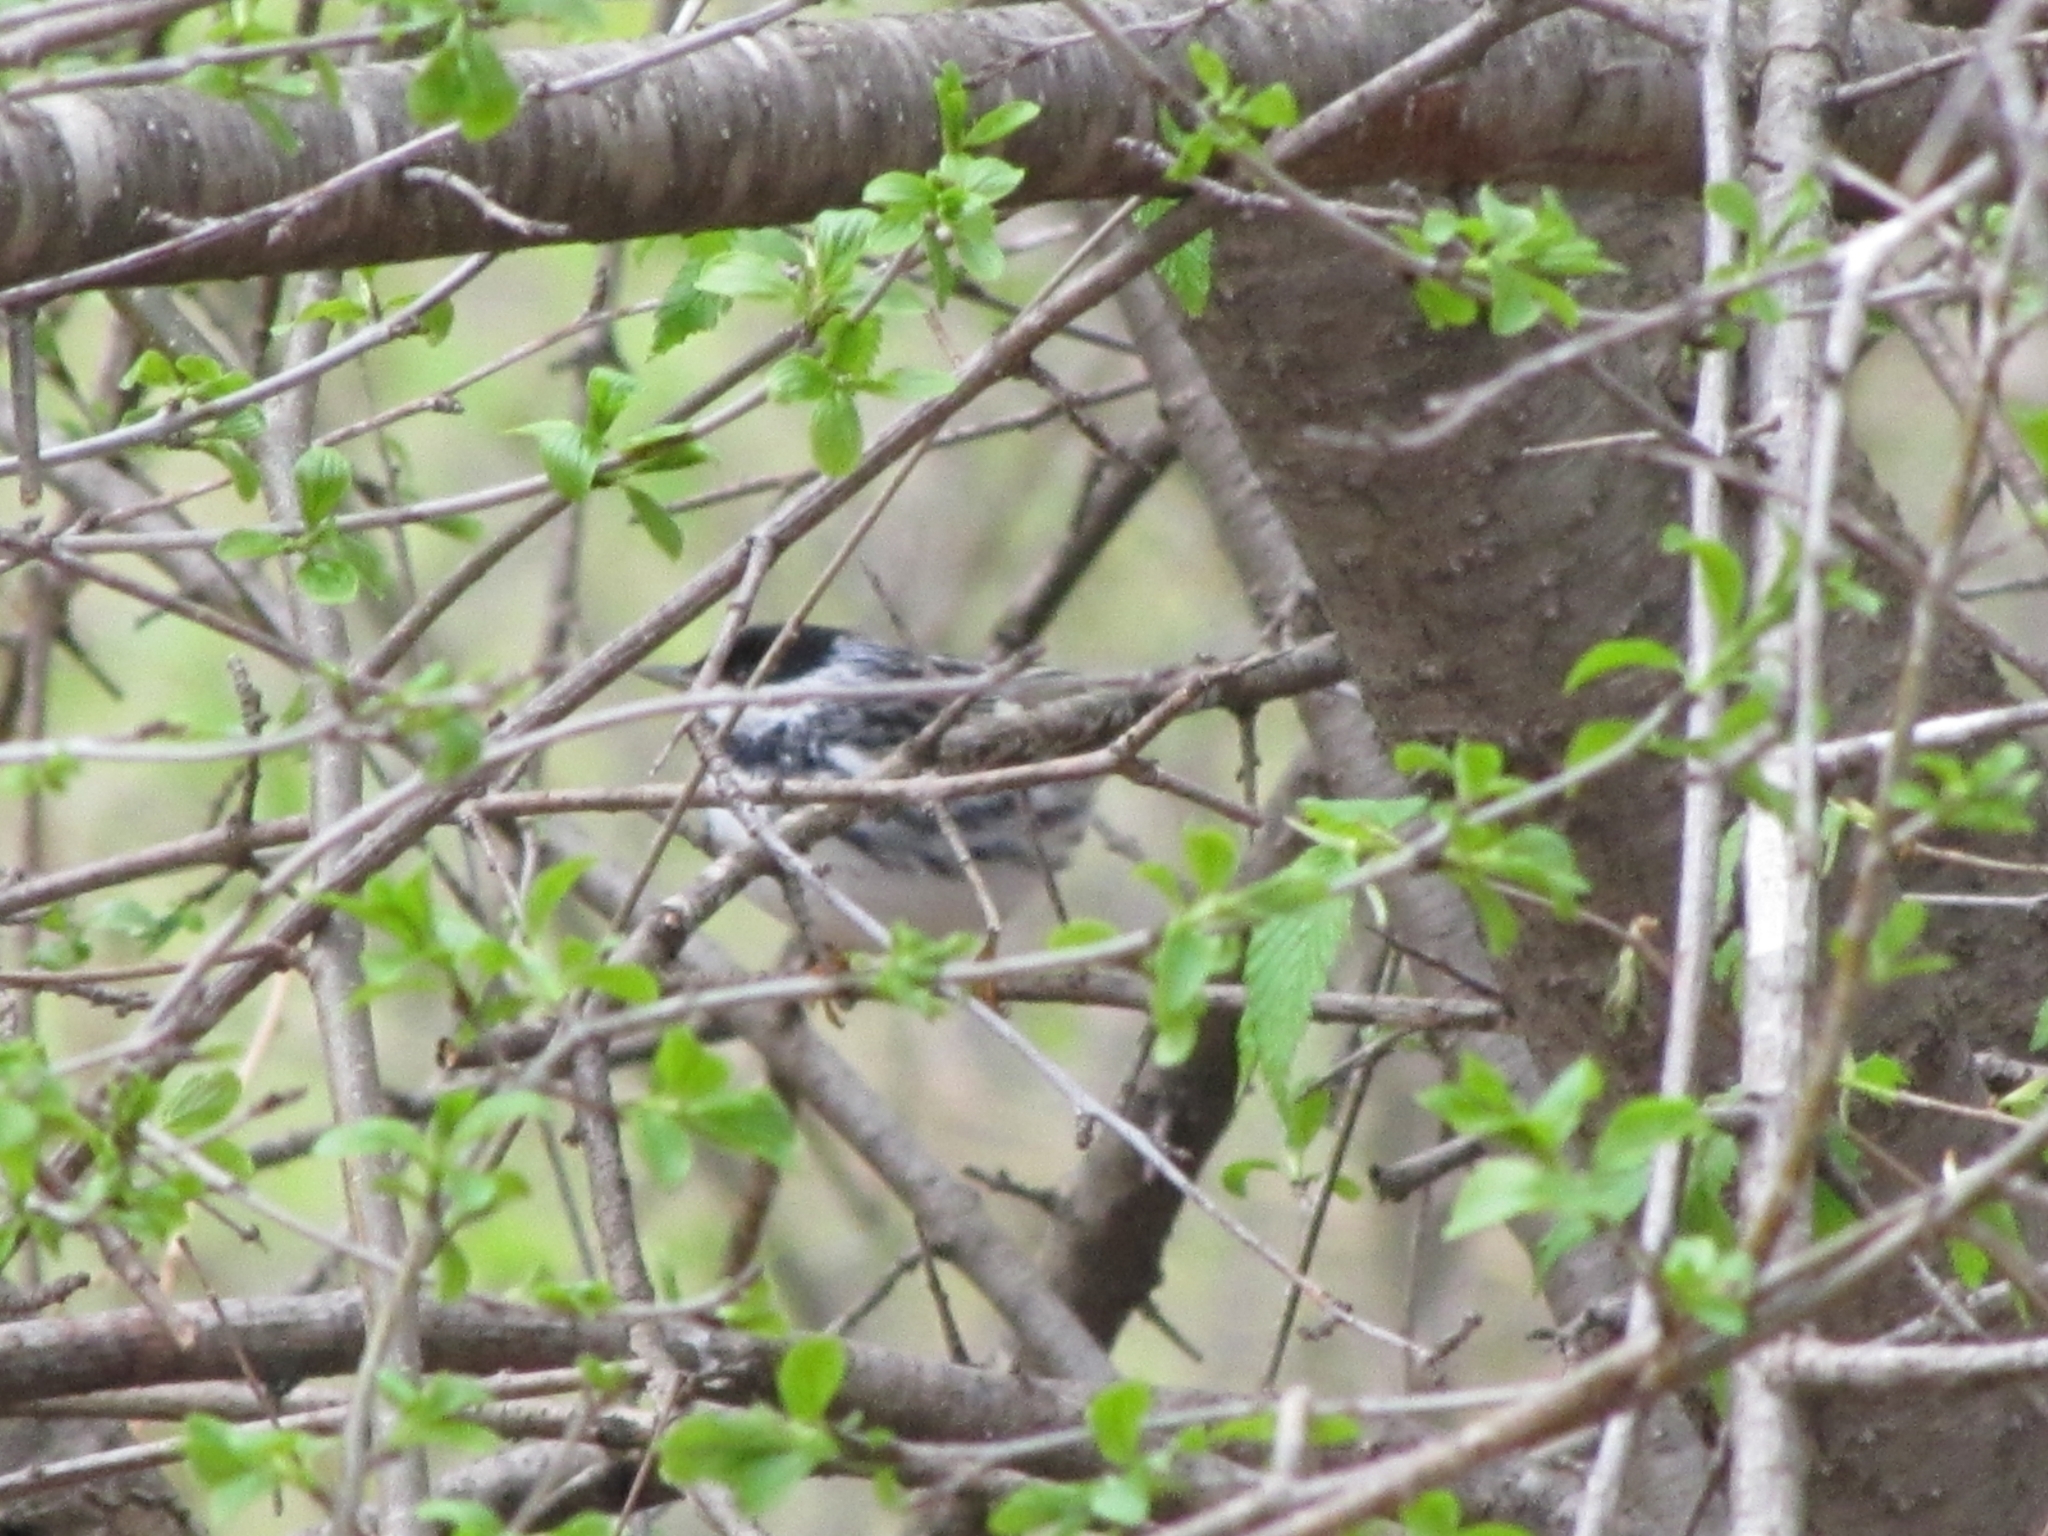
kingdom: Animalia
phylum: Chordata
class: Aves
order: Passeriformes
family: Parulidae
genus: Setophaga
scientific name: Setophaga striata
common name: Blackpoll warbler
